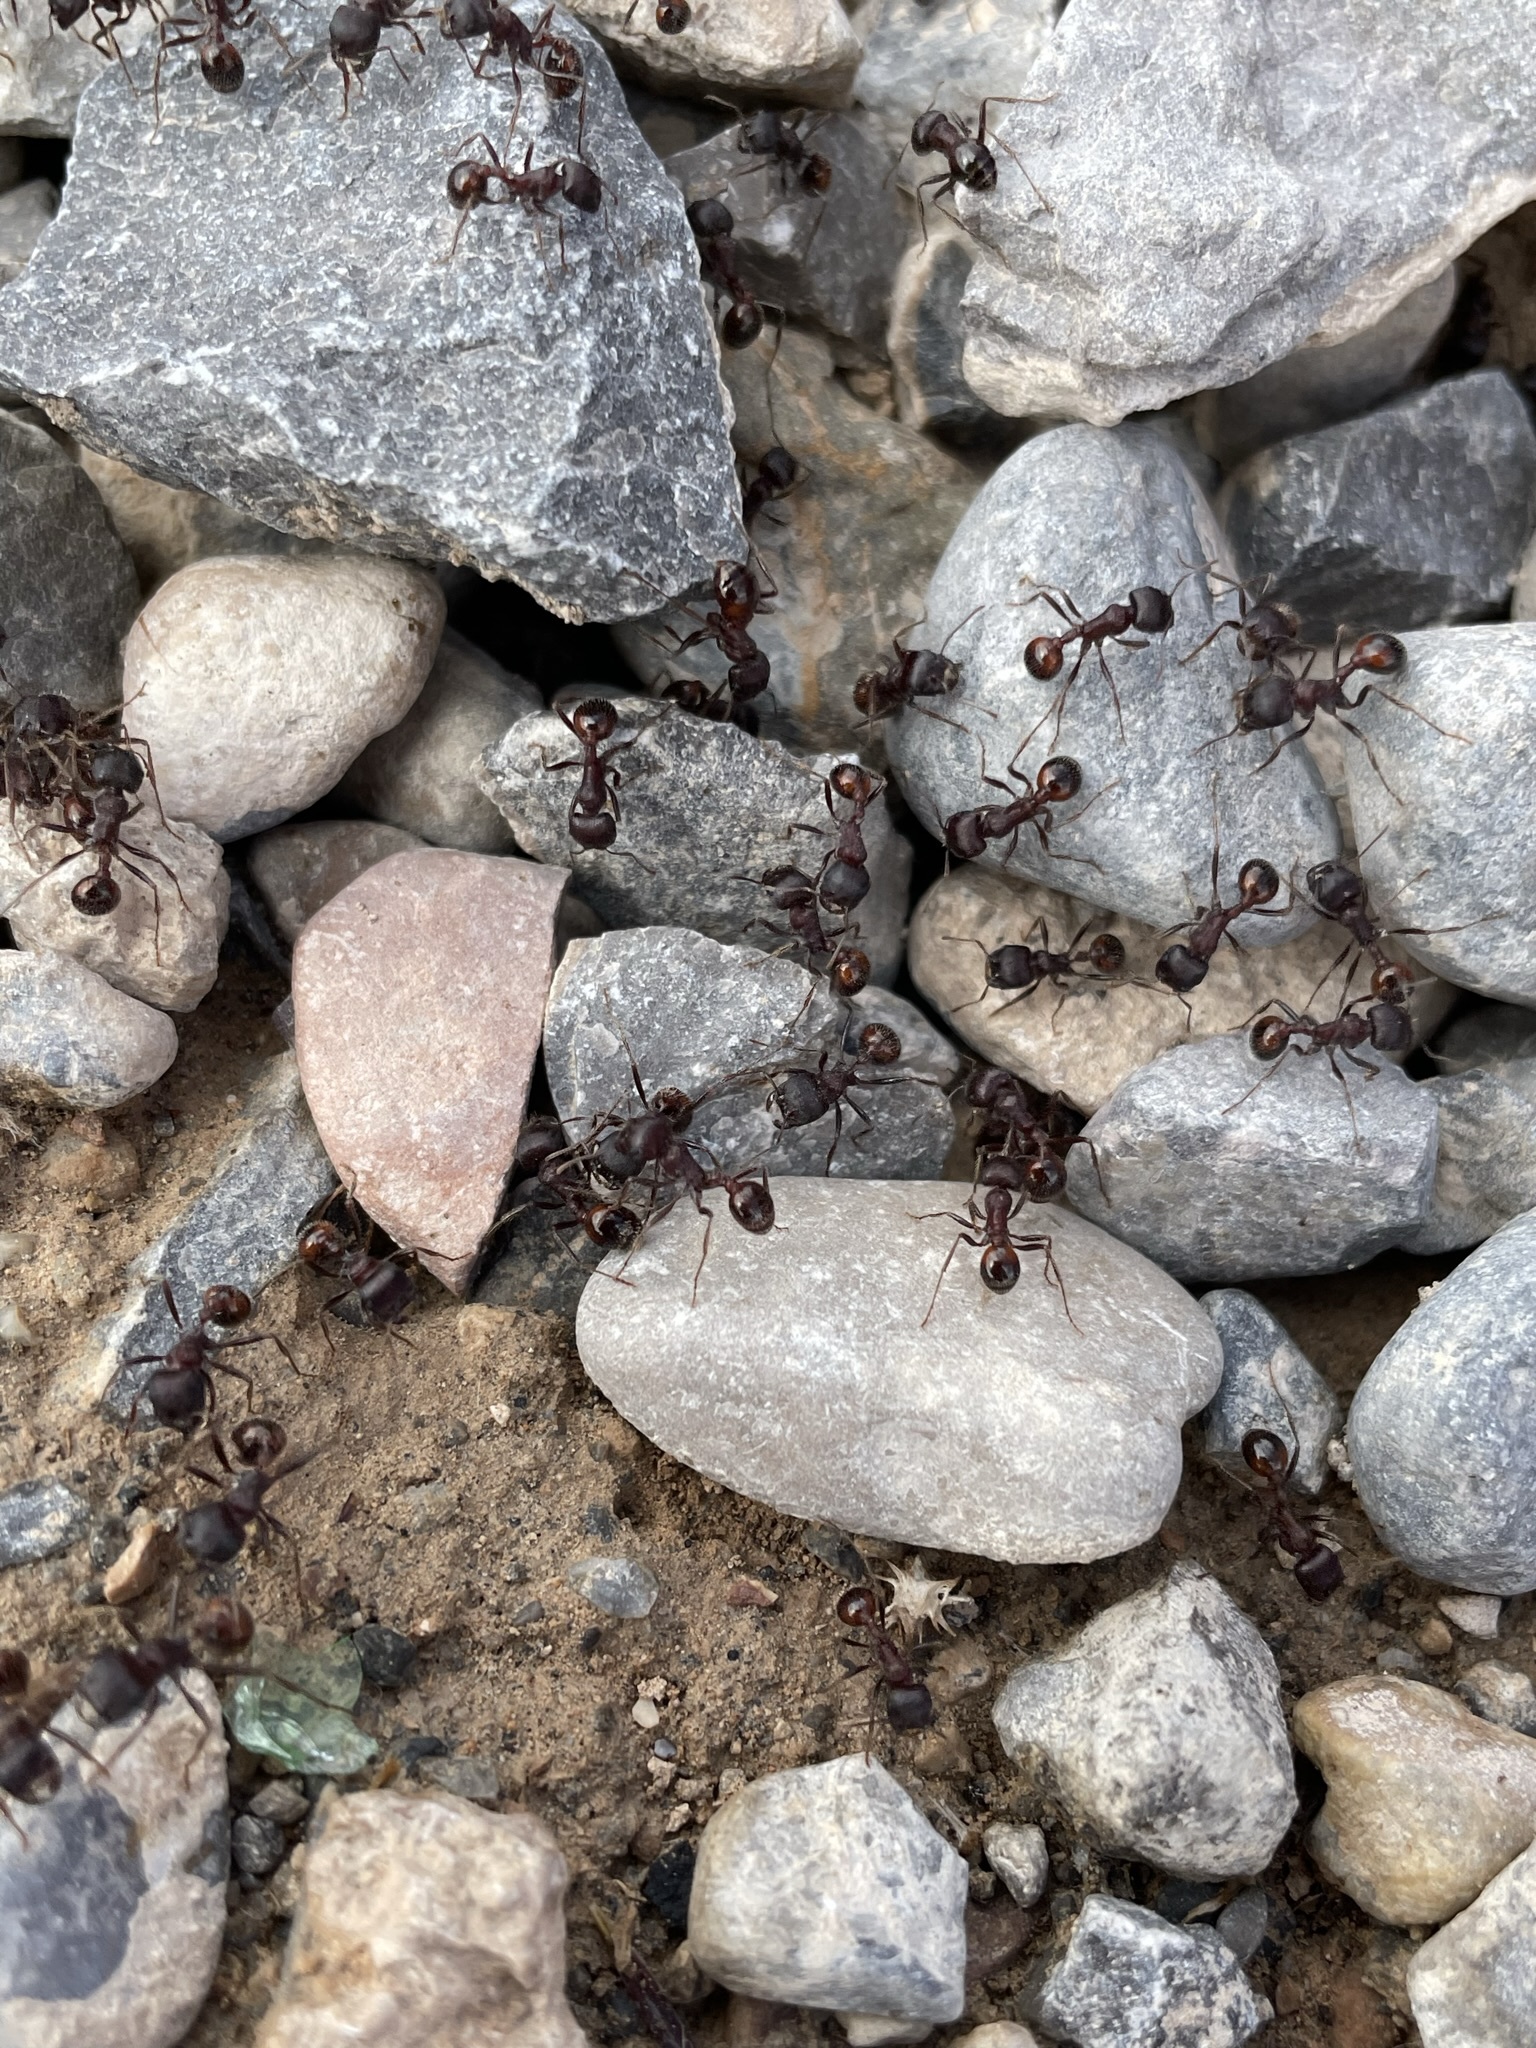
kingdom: Animalia
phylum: Arthropoda
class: Insecta
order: Hymenoptera
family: Formicidae
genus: Pogonomyrmex
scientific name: Pogonomyrmex rugosus
